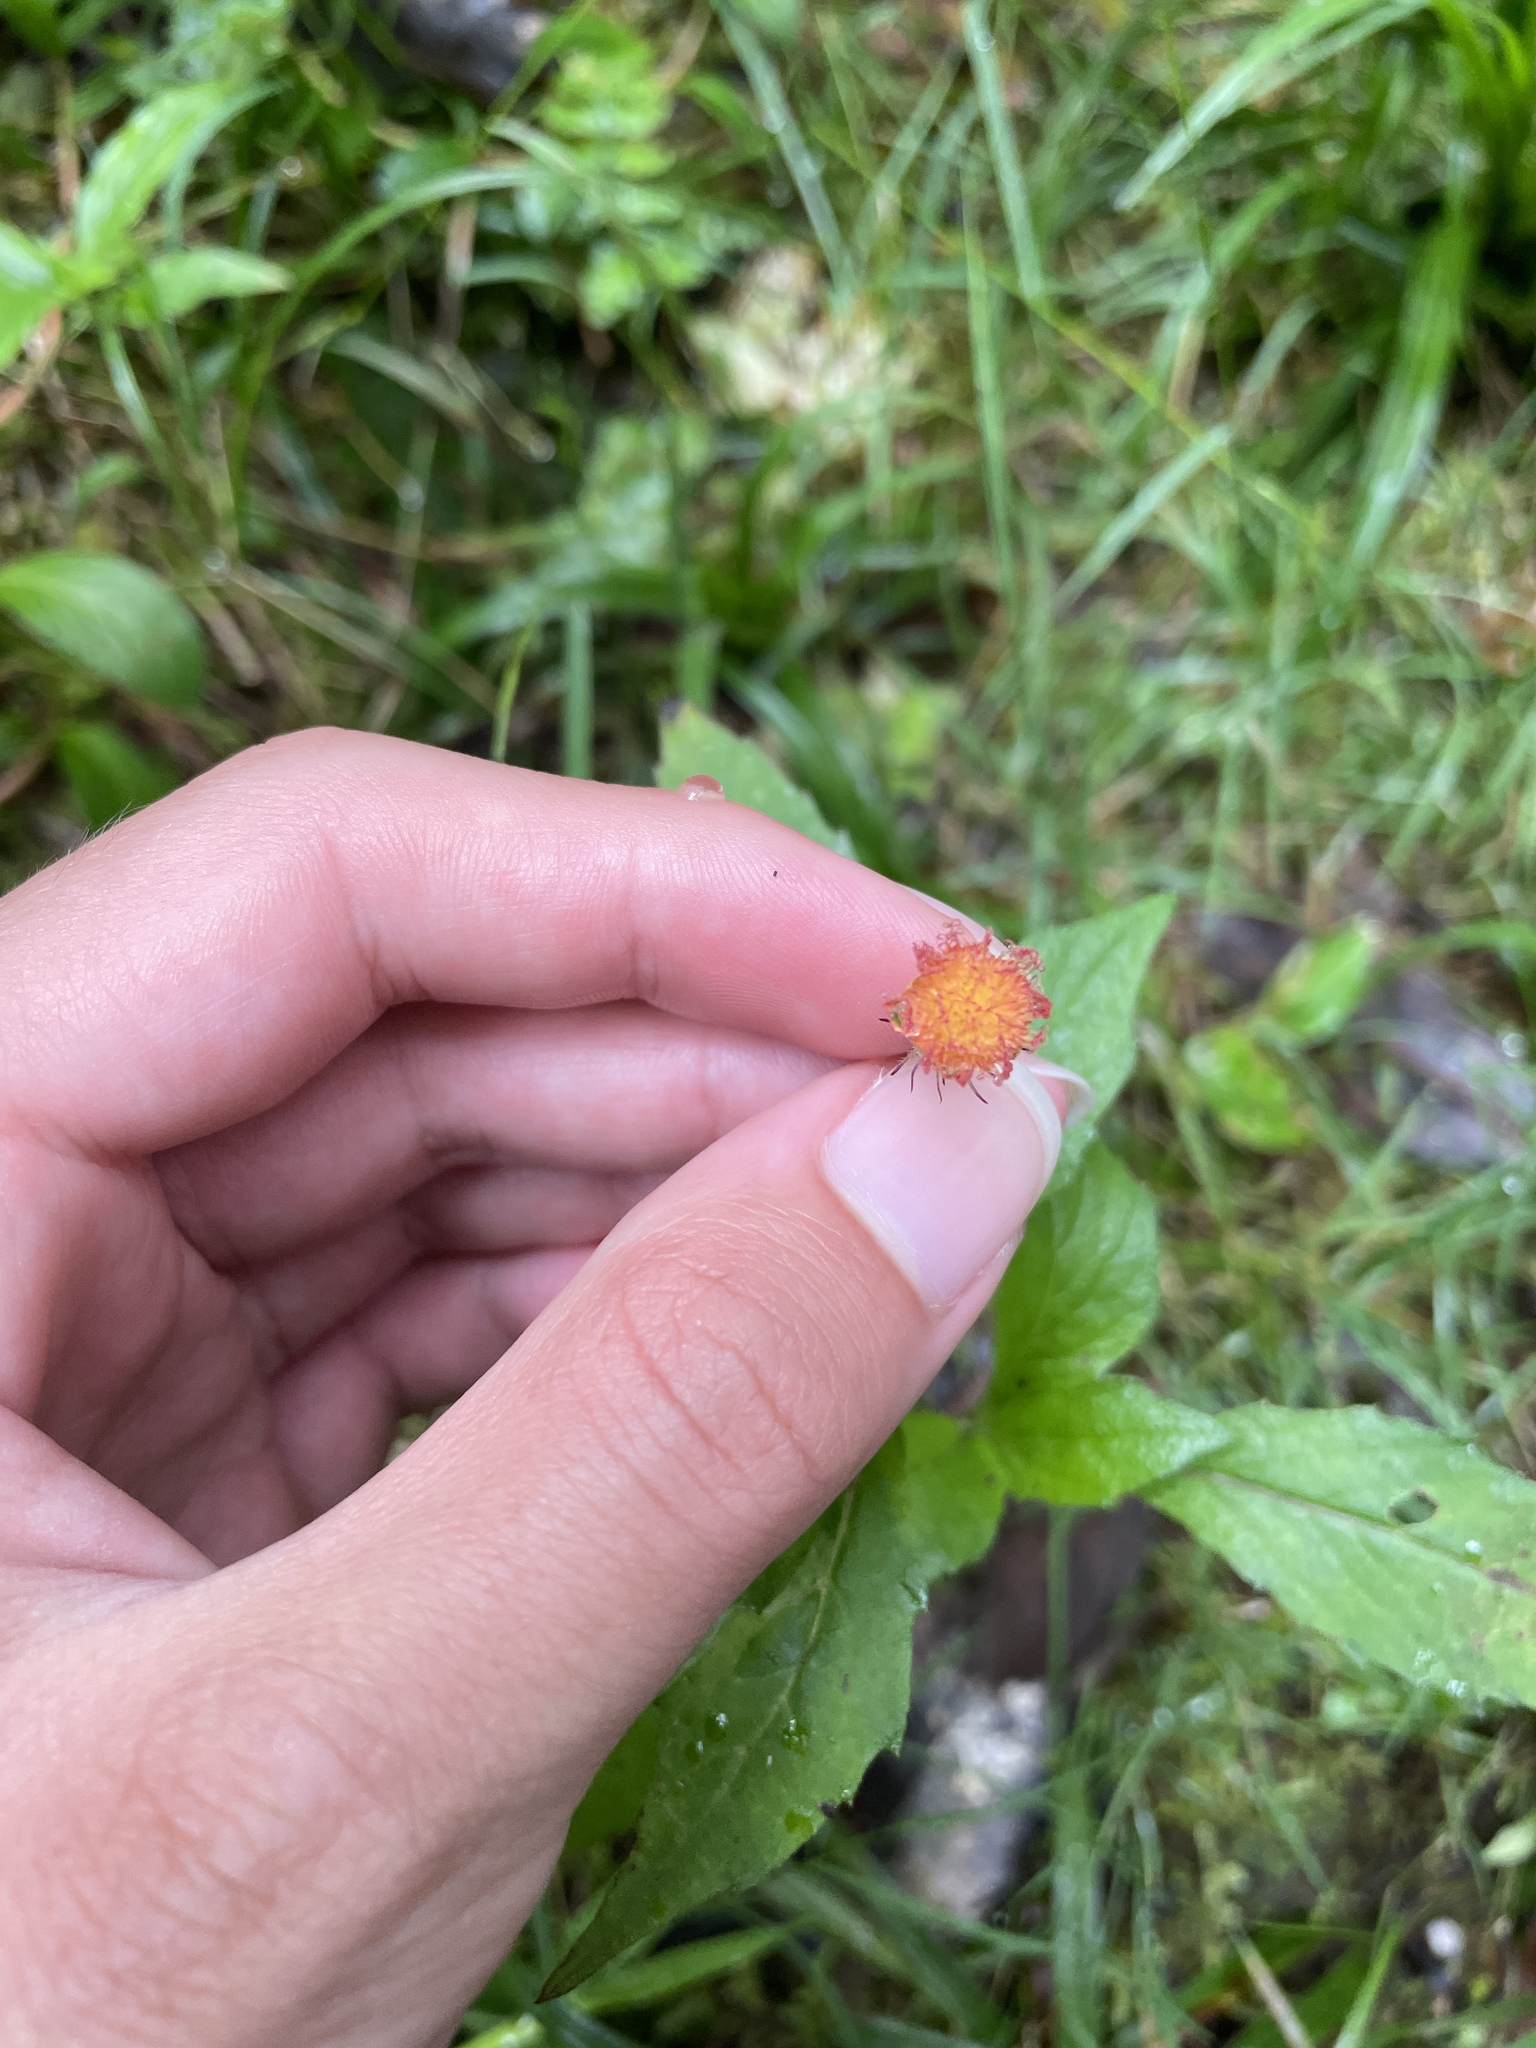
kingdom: Plantae
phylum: Tracheophyta
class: Magnoliopsida
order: Asterales
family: Asteraceae
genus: Emilia
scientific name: Emilia fosbergii
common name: Florida tasselflower
